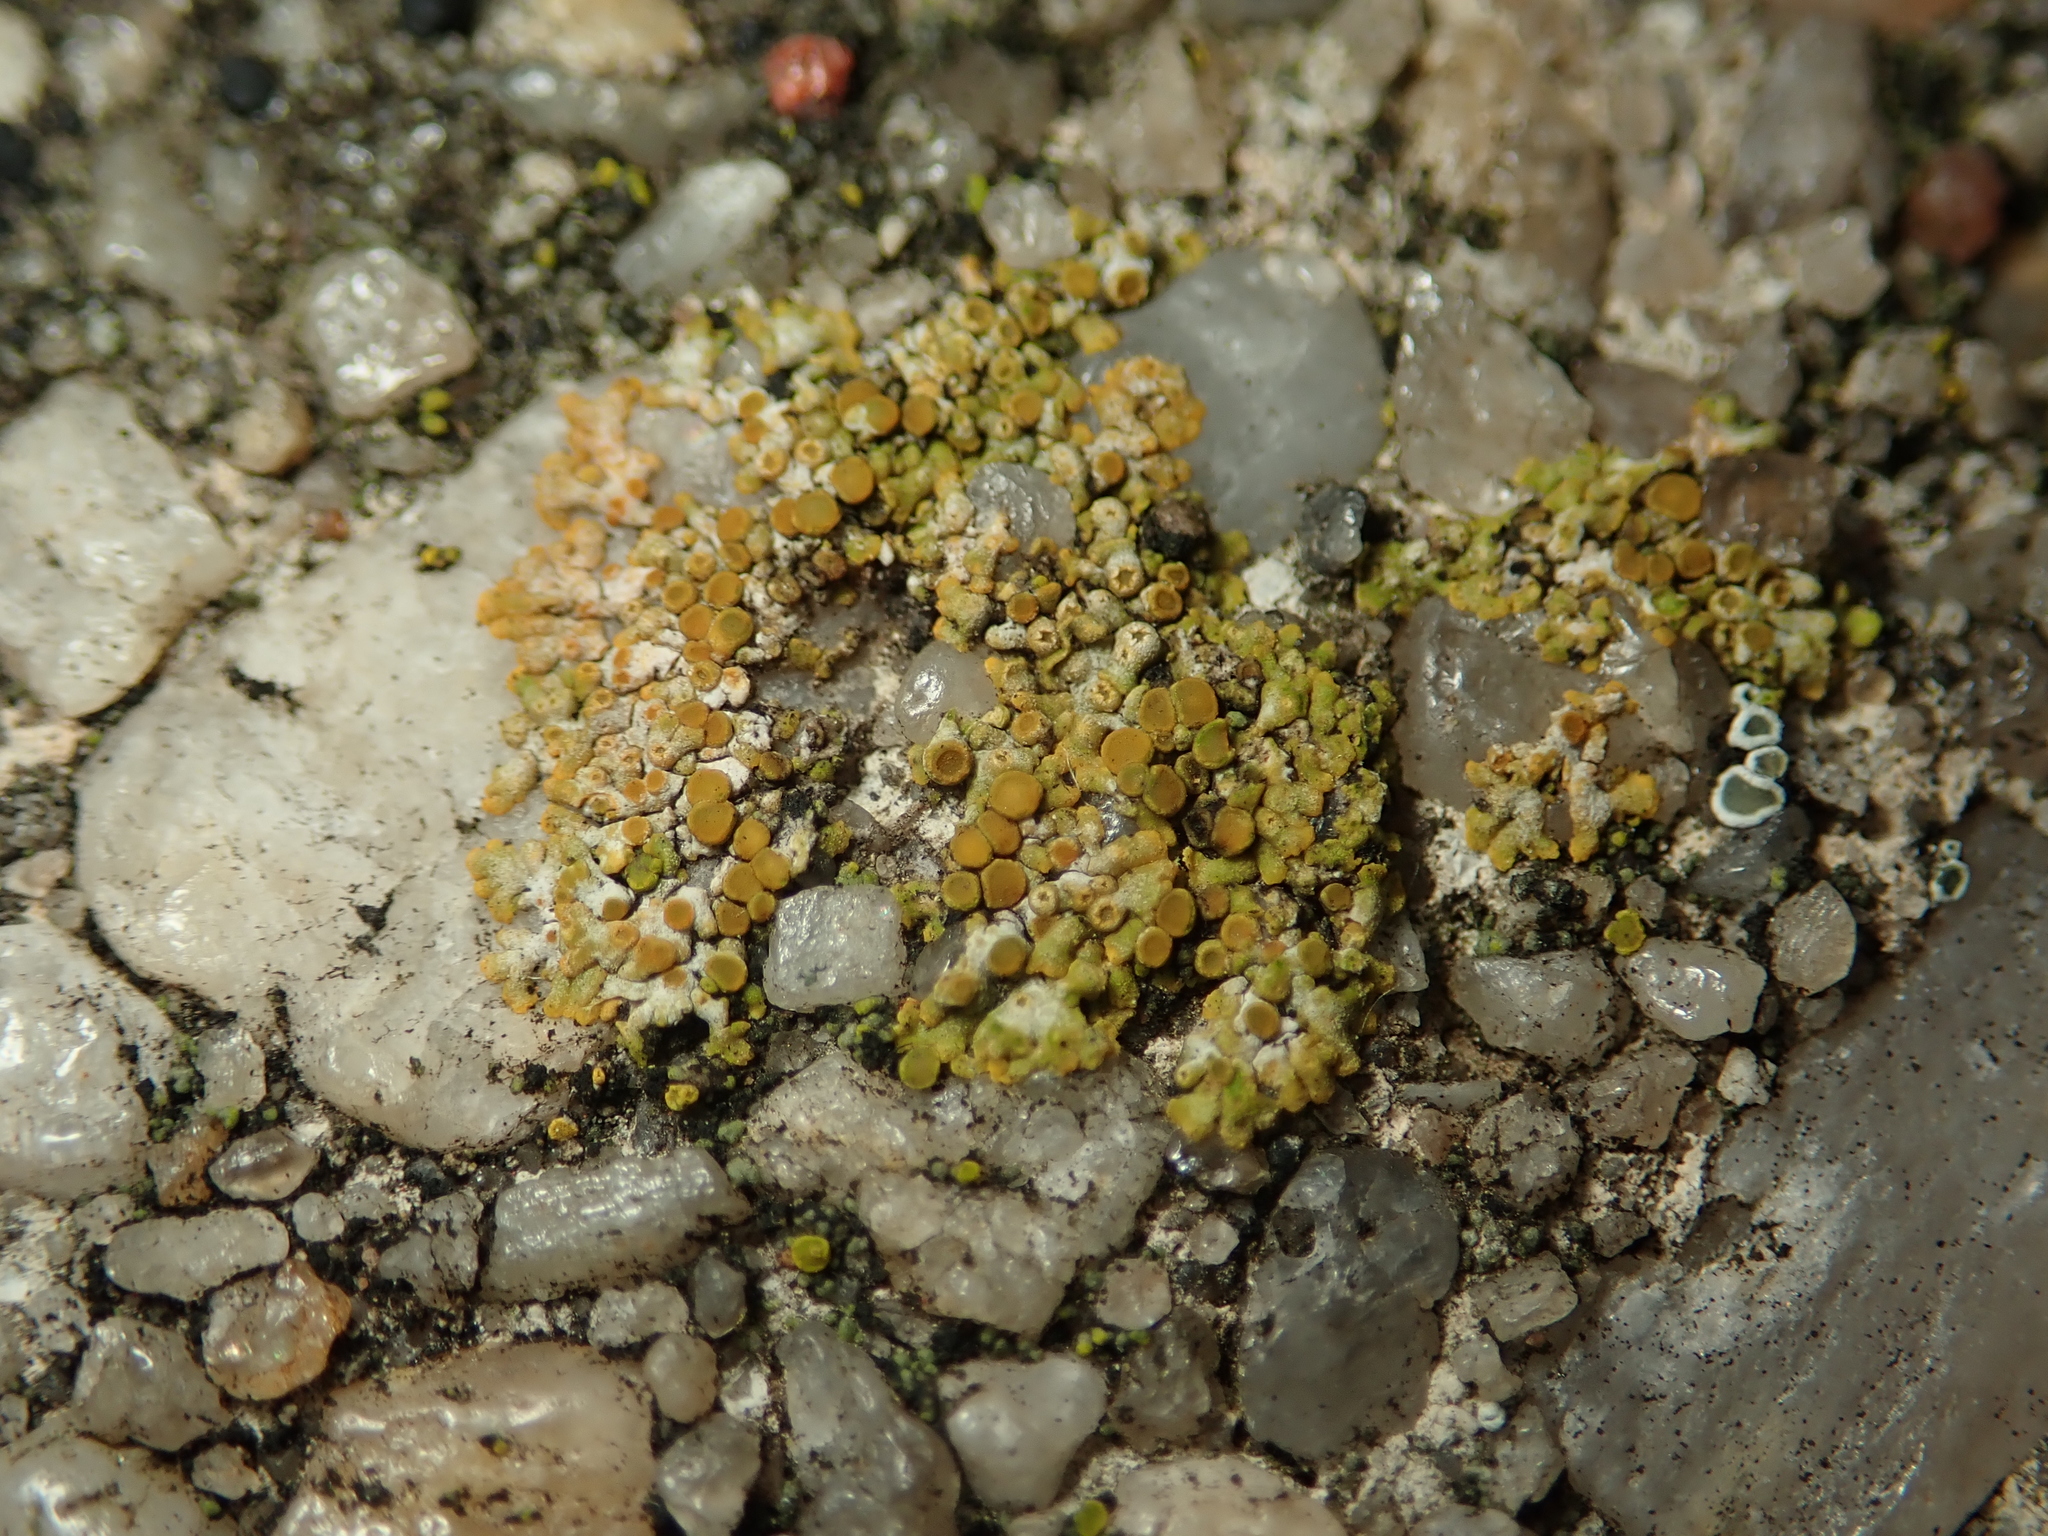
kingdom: Fungi
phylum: Ascomycota
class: Lecanoromycetes
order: Teloschistales
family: Teloschistaceae
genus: Calogaya
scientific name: Calogaya pusilla
